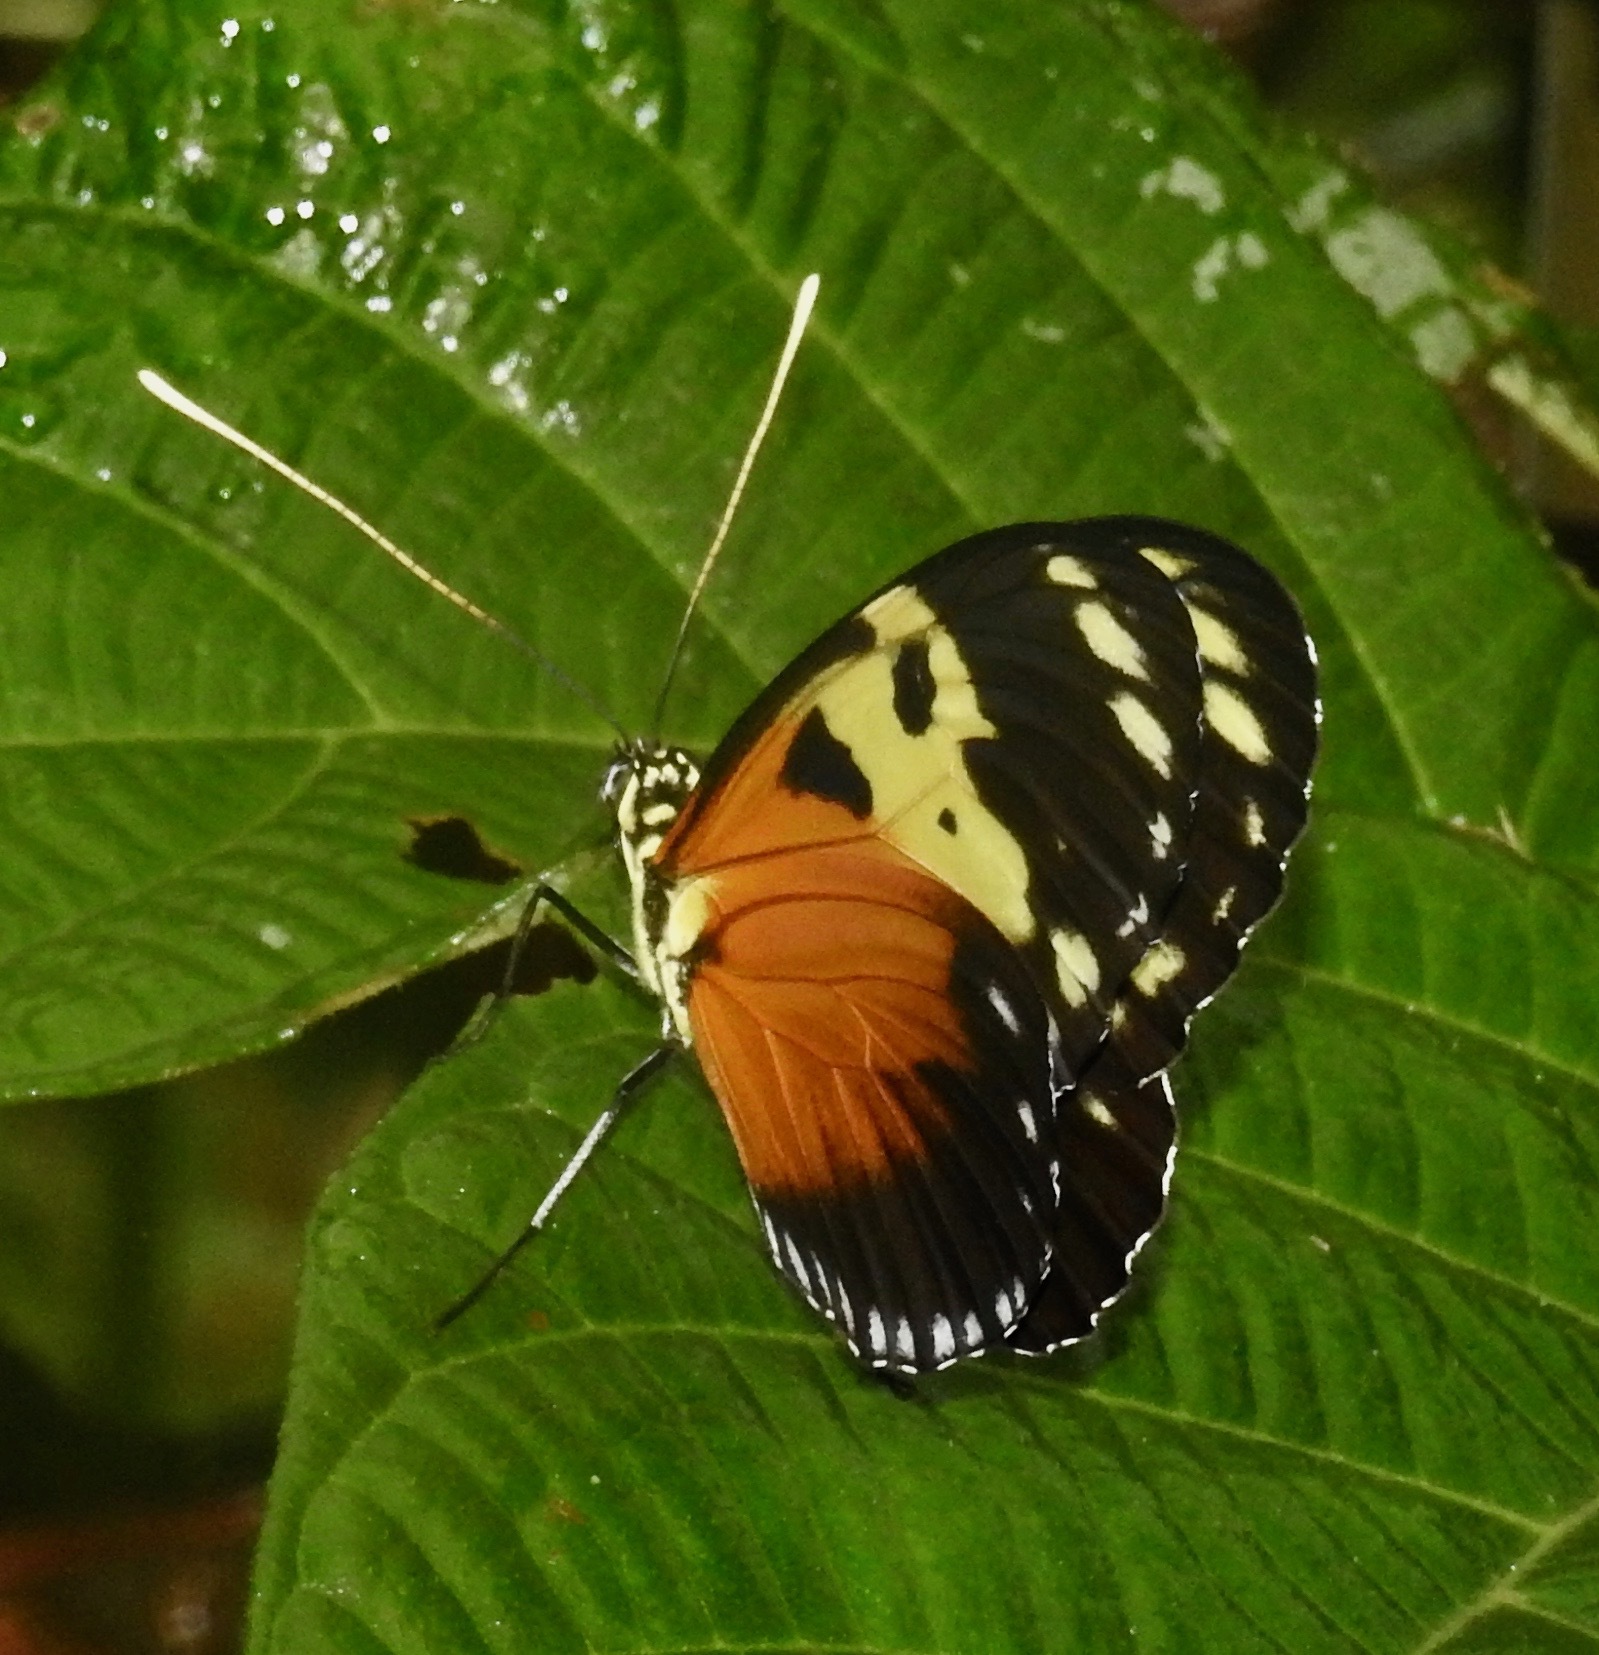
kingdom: Animalia
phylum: Arthropoda
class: Insecta
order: Lepidoptera
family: Nymphalidae
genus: Heliconius
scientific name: Heliconius hecale
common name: Tiger longwing
